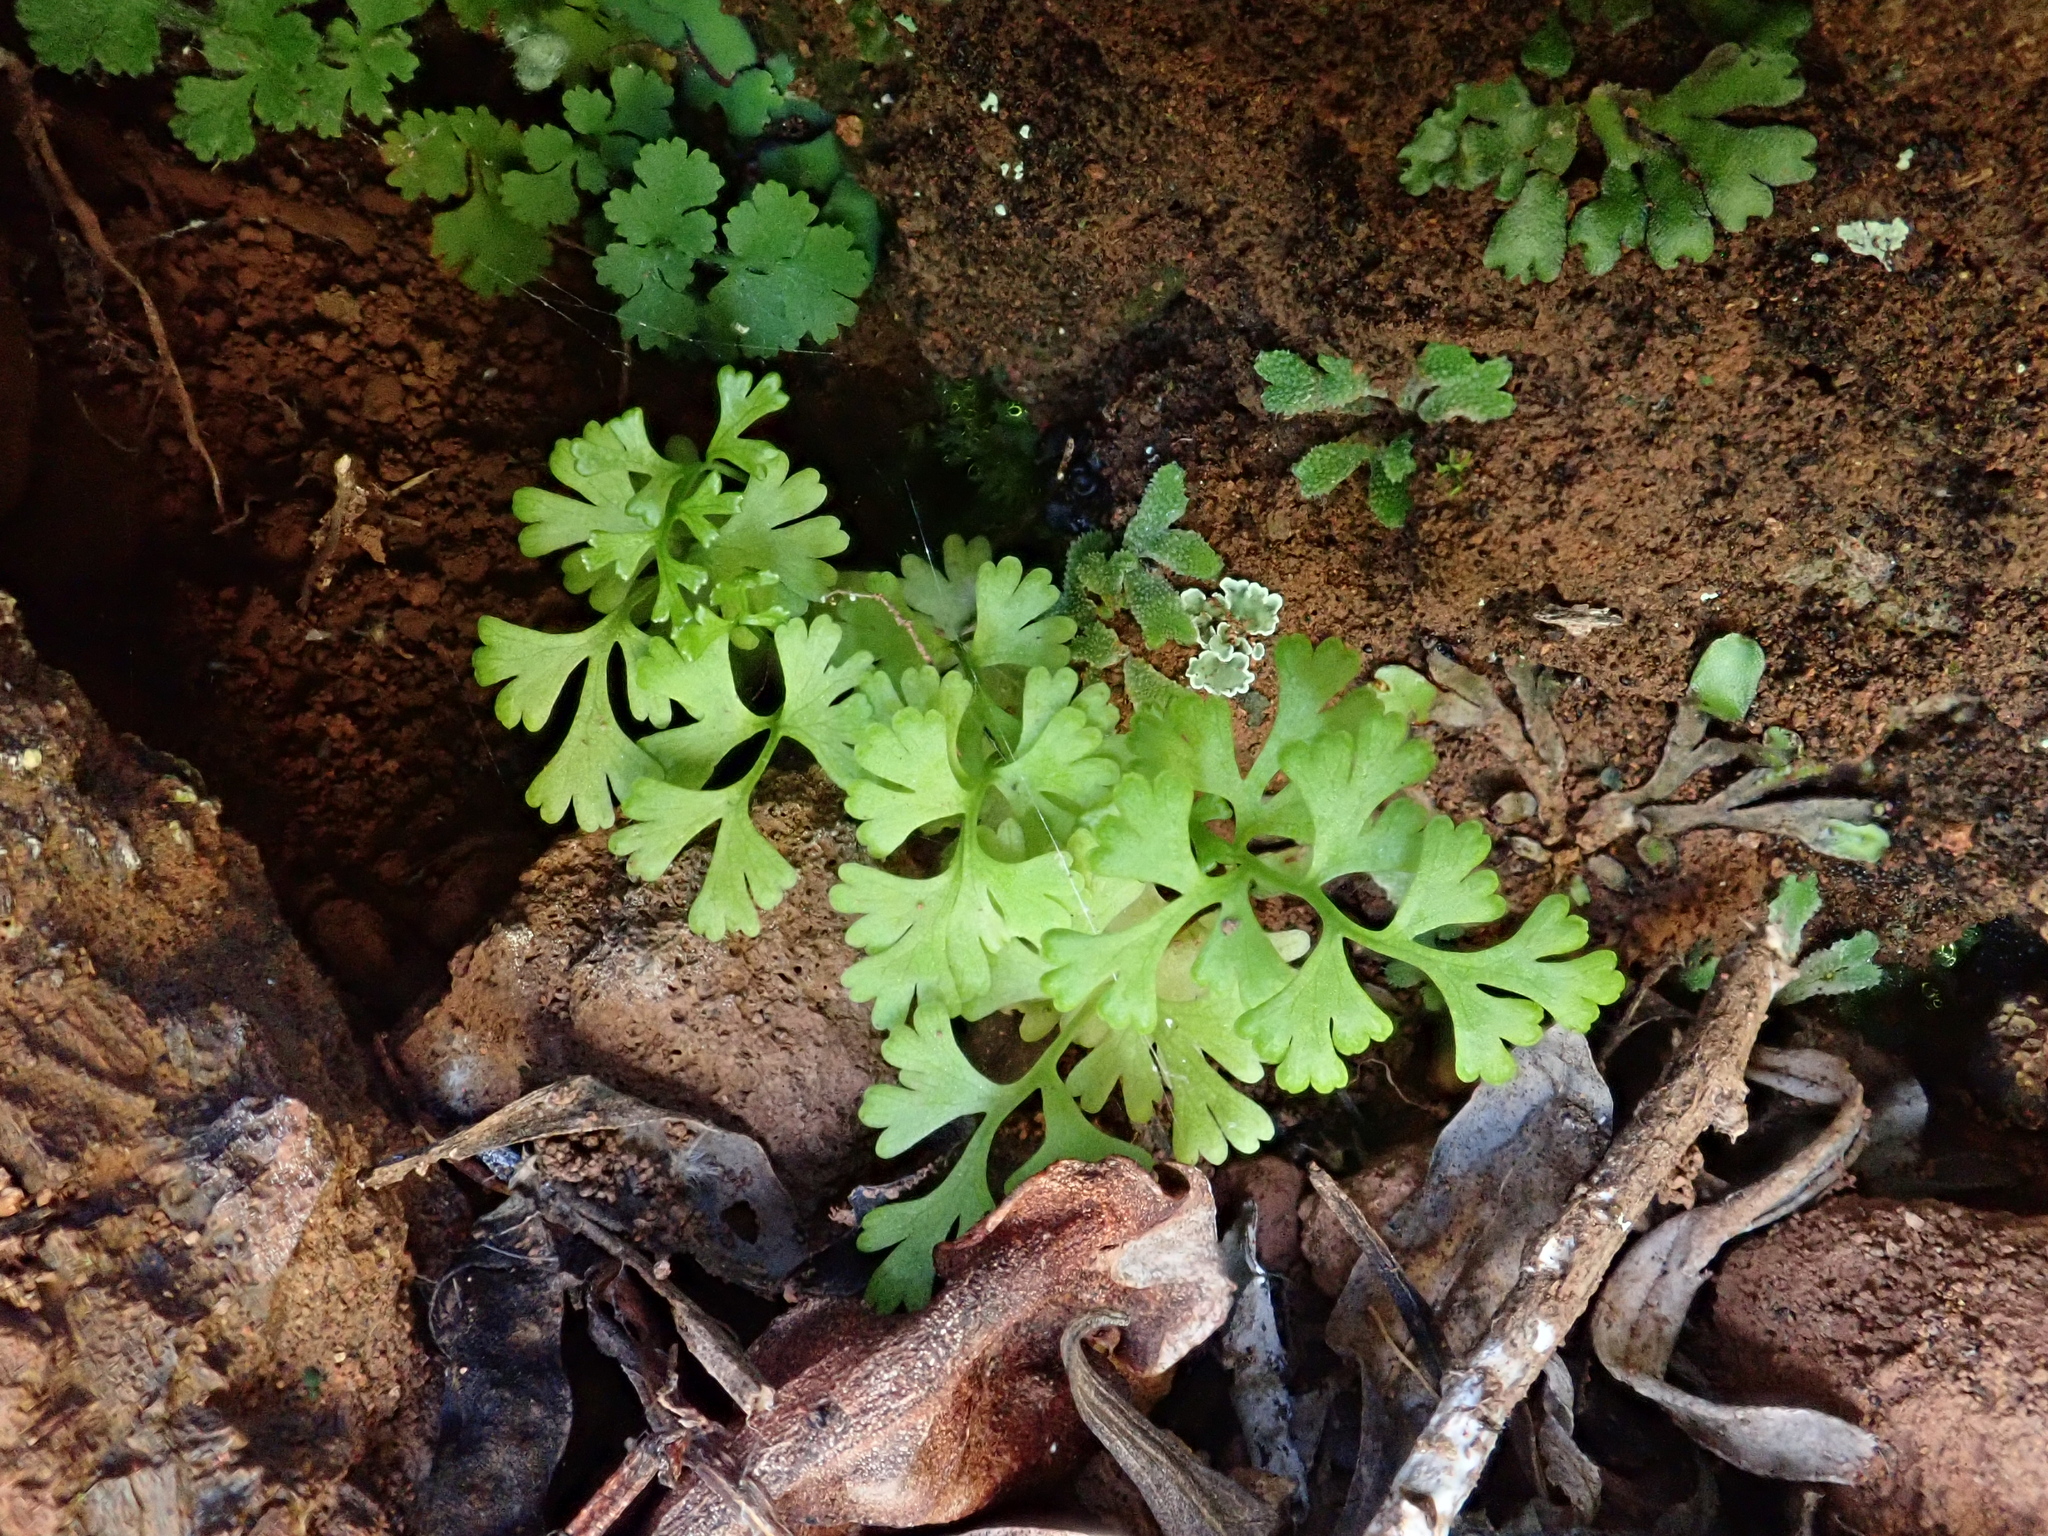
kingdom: Plantae
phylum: Tracheophyta
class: Polypodiopsida
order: Polypodiales
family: Pteridaceae
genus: Anogramma
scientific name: Anogramma leptophylla
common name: Jersey fern
